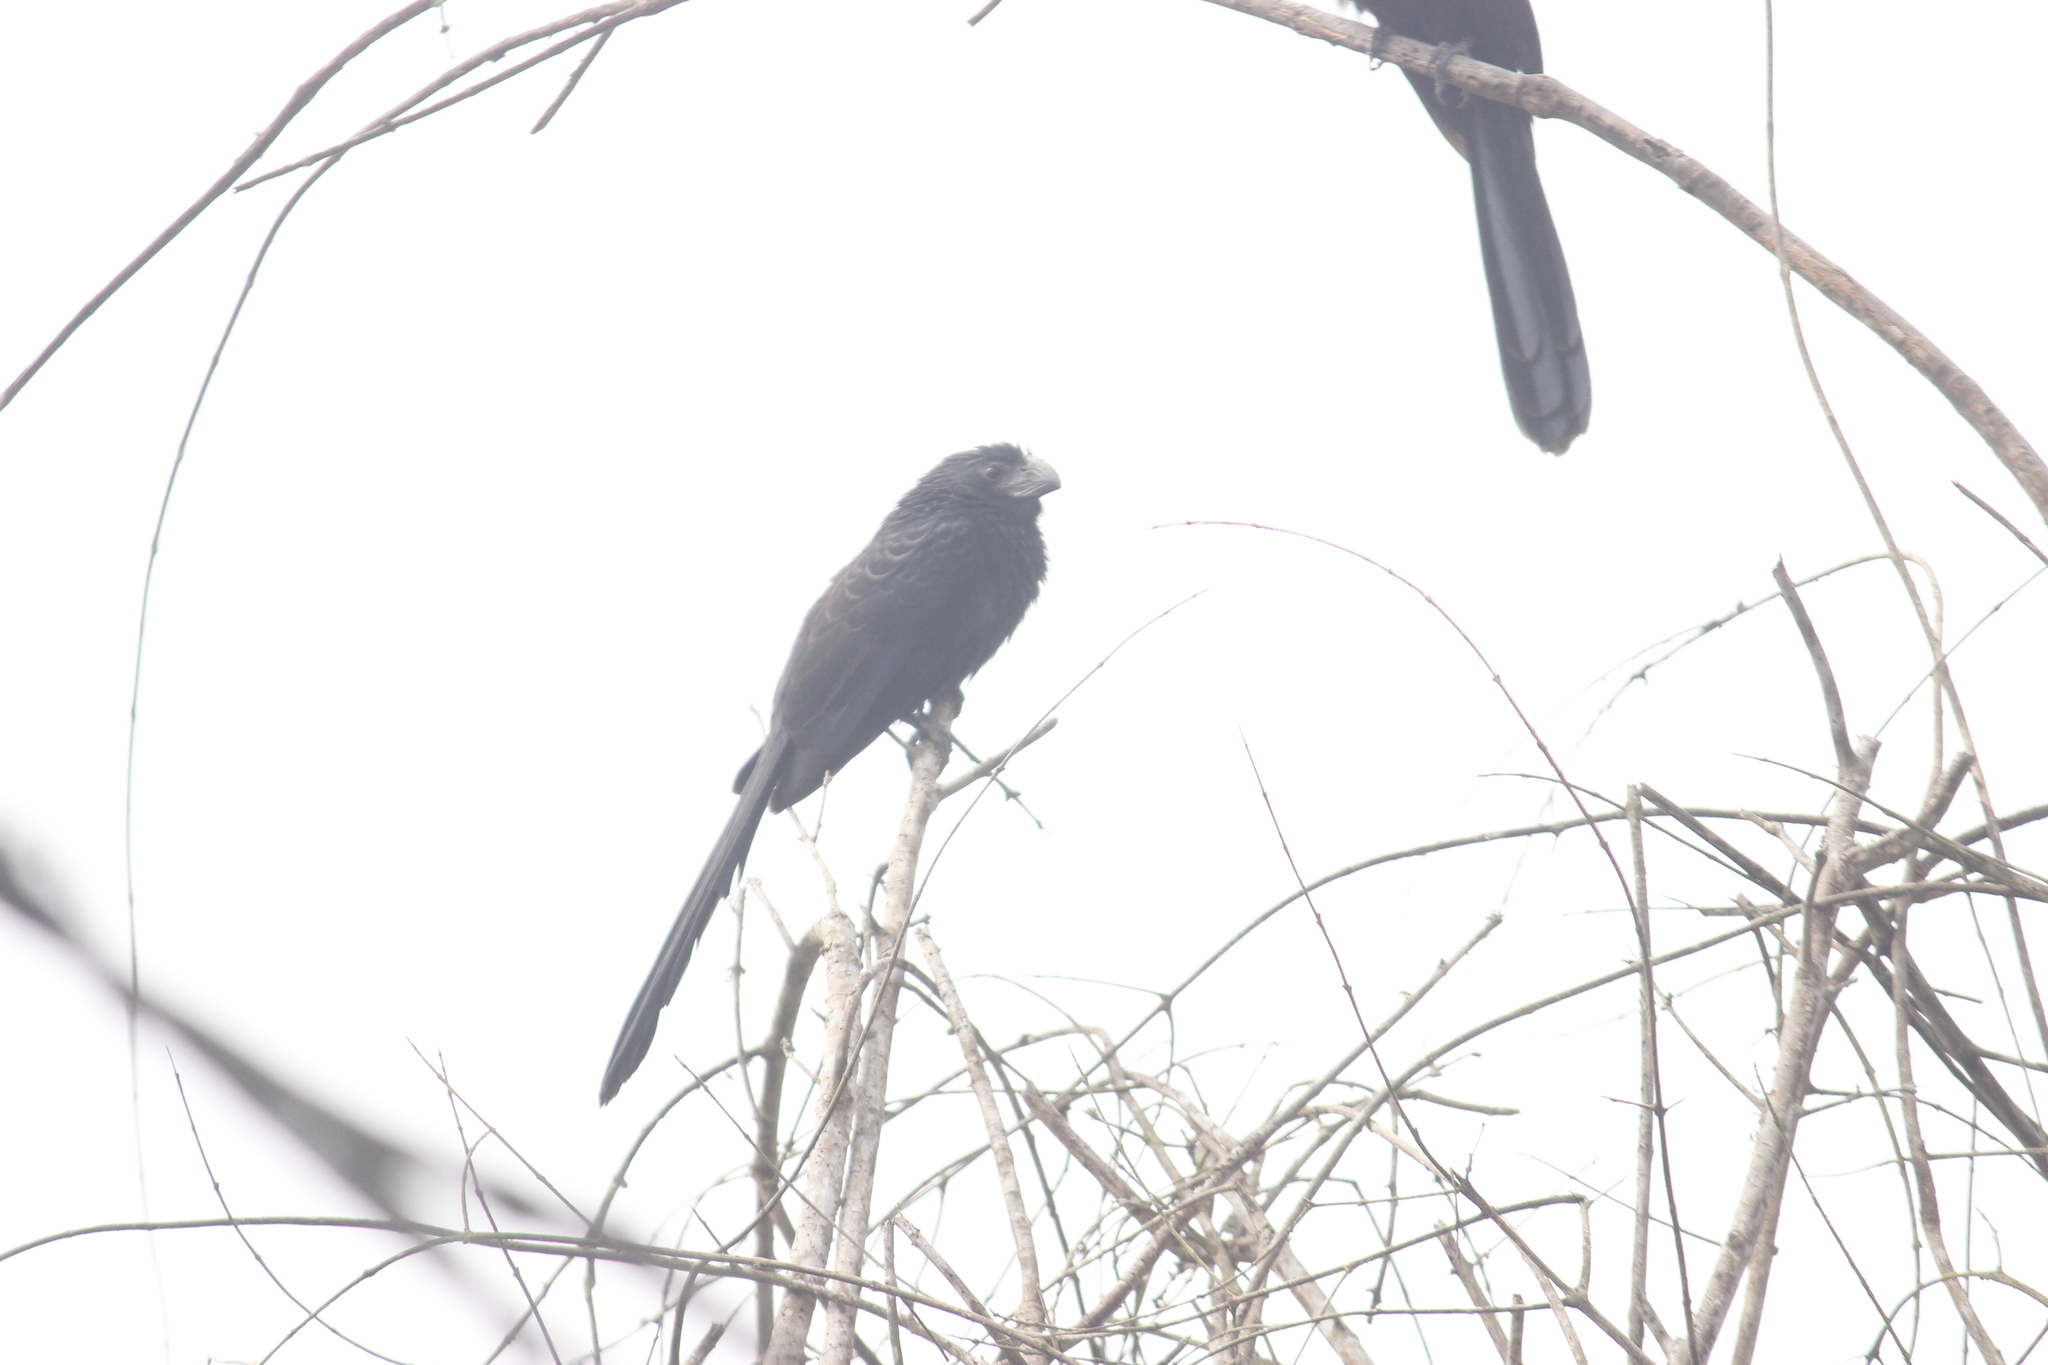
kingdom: Animalia
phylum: Chordata
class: Aves
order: Cuculiformes
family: Cuculidae
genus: Crotophaga
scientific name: Crotophaga sulcirostris
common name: Groove-billed ani
